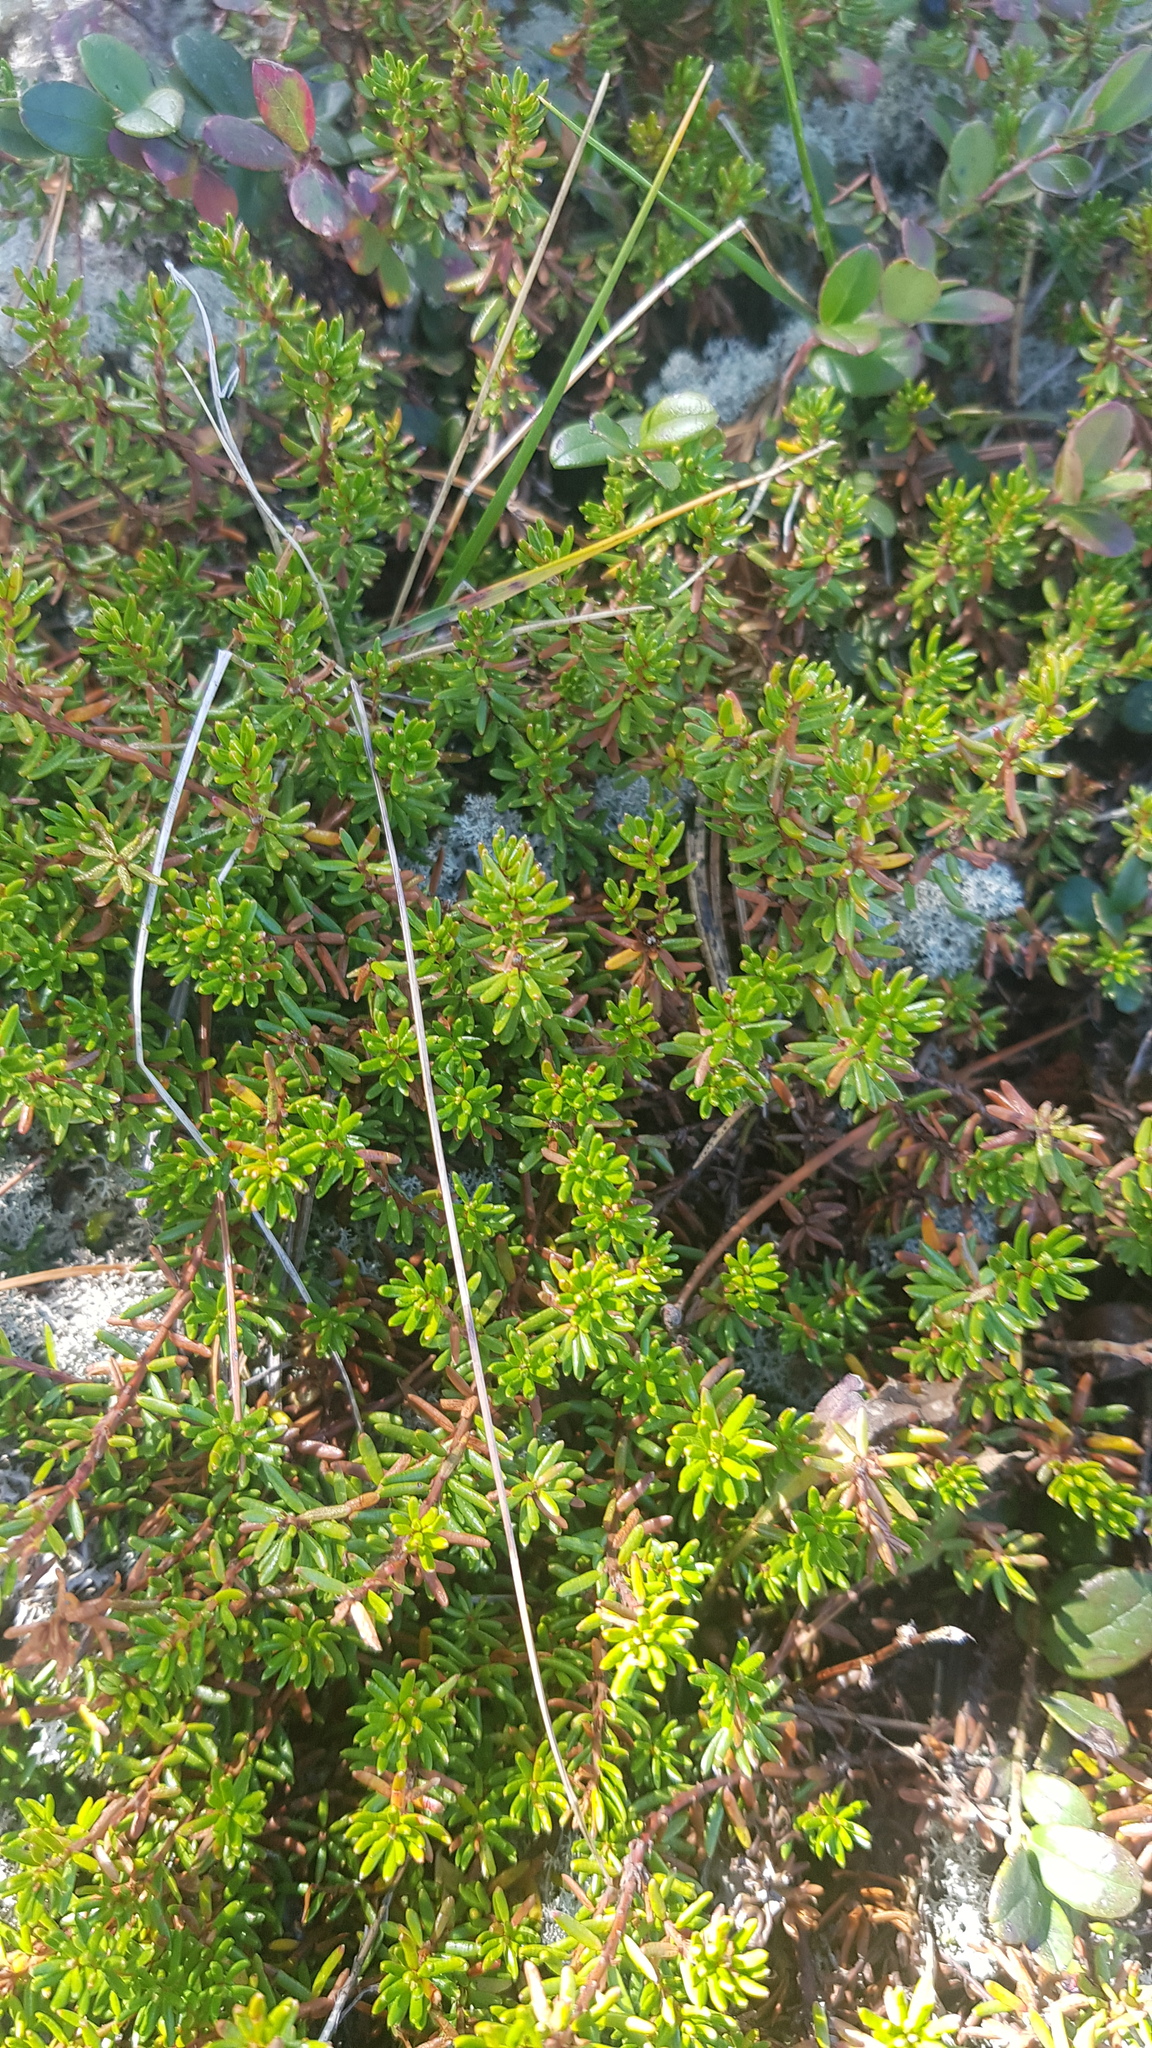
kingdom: Plantae
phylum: Tracheophyta
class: Magnoliopsida
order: Ericales
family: Ericaceae
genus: Empetrum
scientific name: Empetrum nigrum
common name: Black crowberry
